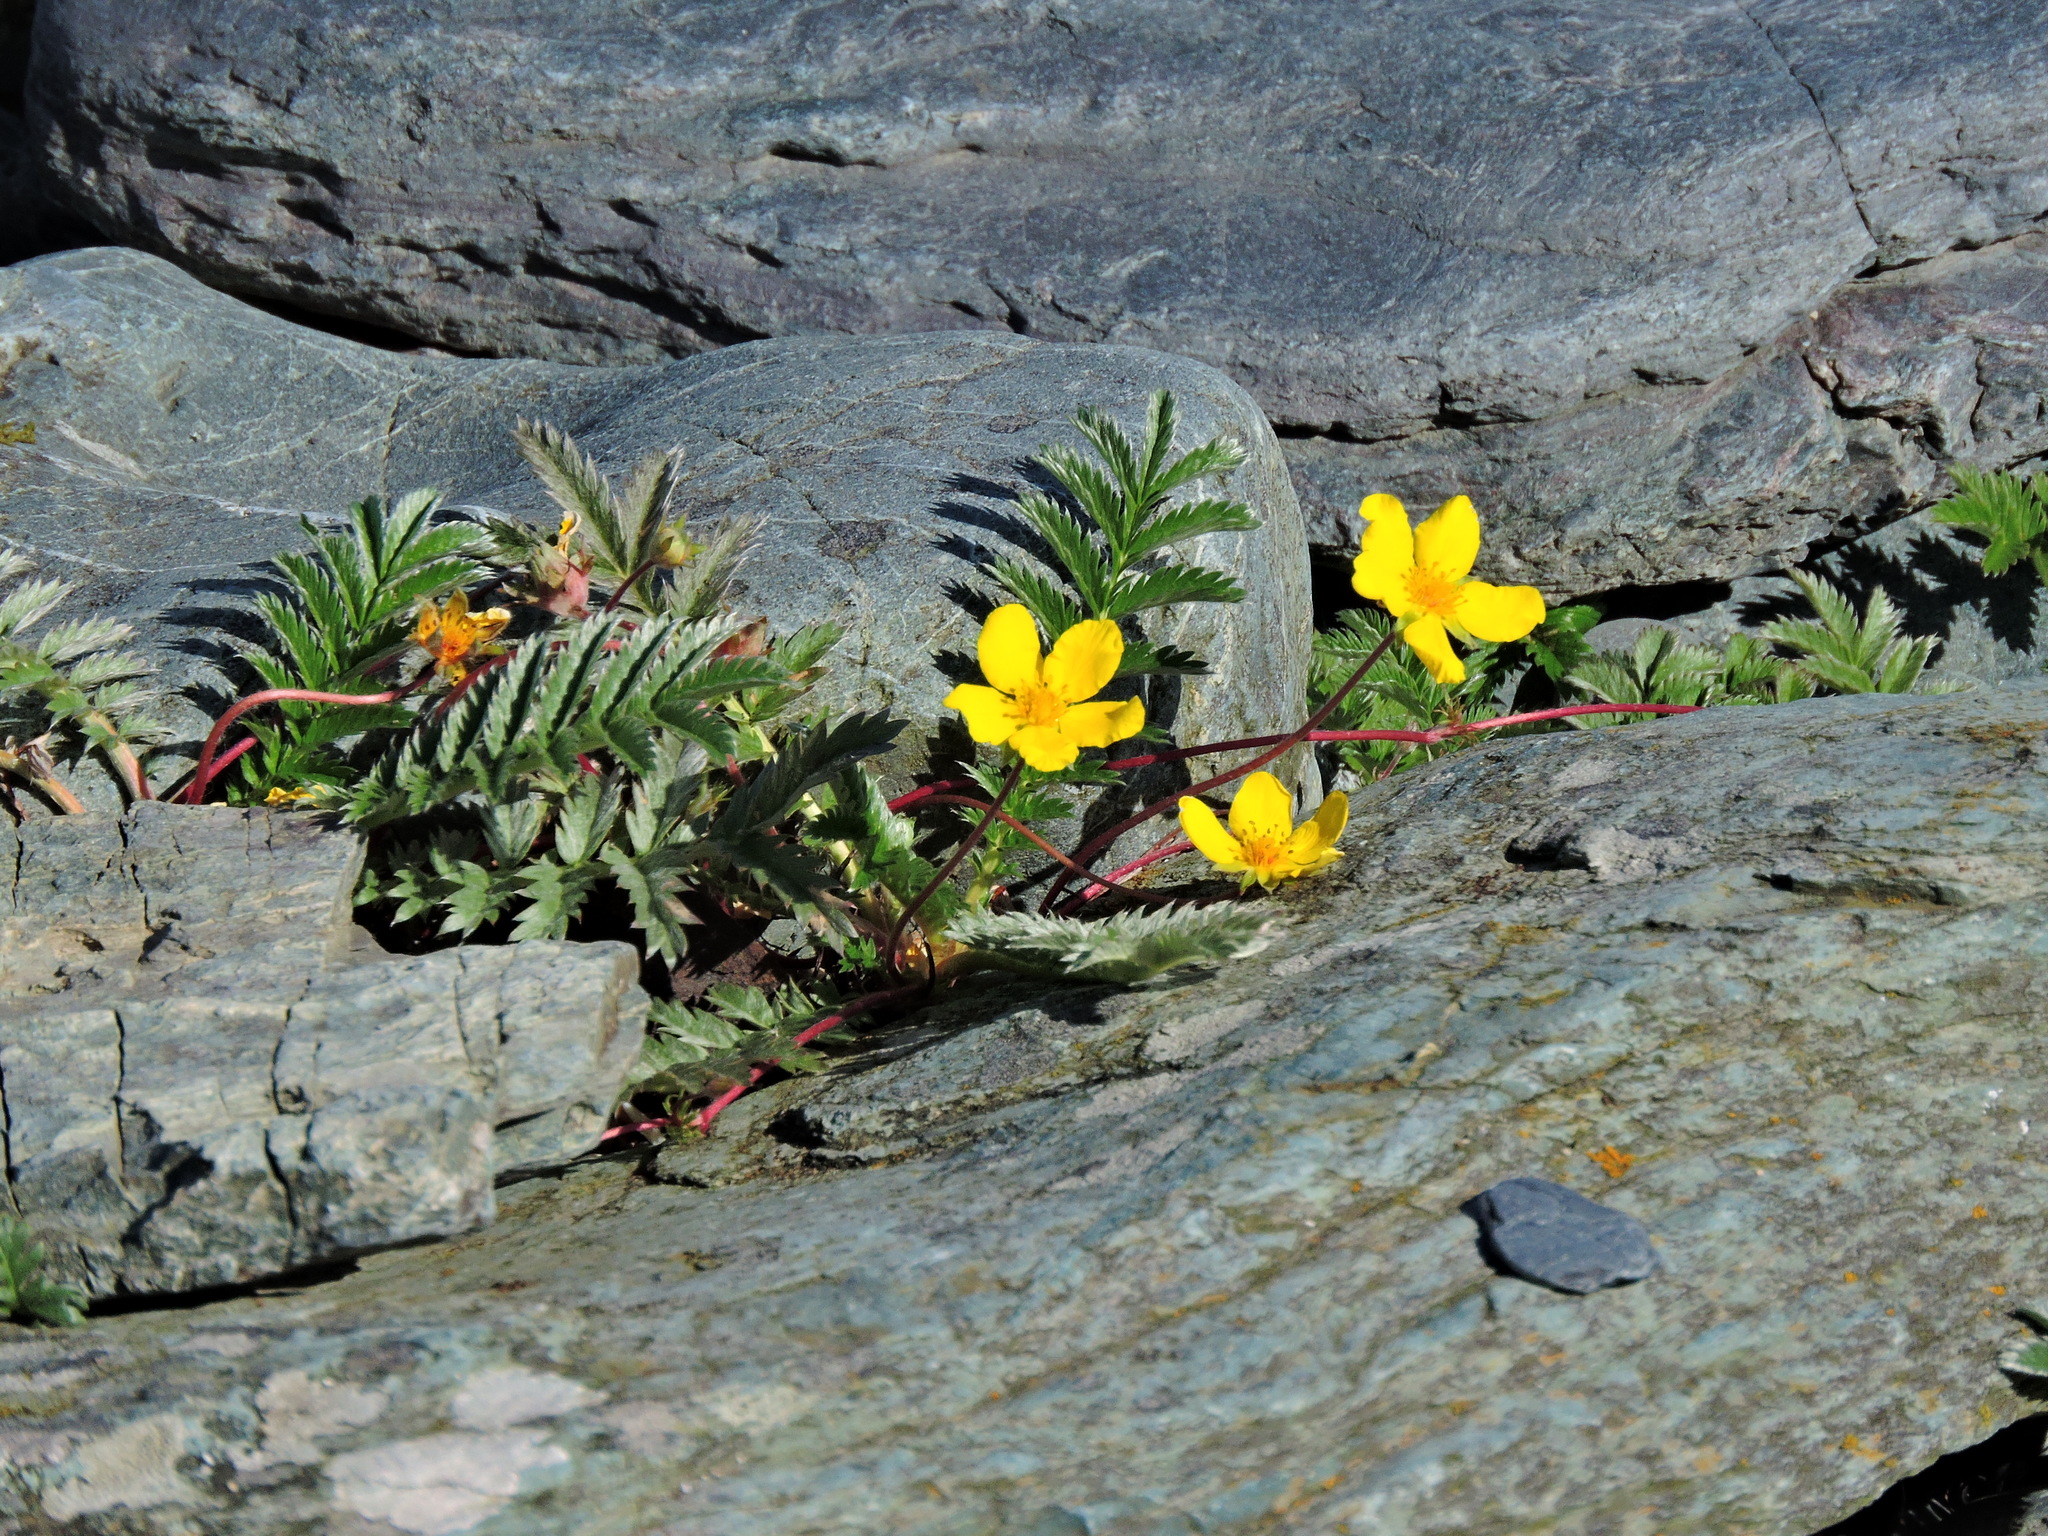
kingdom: Plantae
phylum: Tracheophyta
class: Magnoliopsida
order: Rosales
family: Rosaceae
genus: Argentina
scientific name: Argentina anserina
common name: Common silverweed
